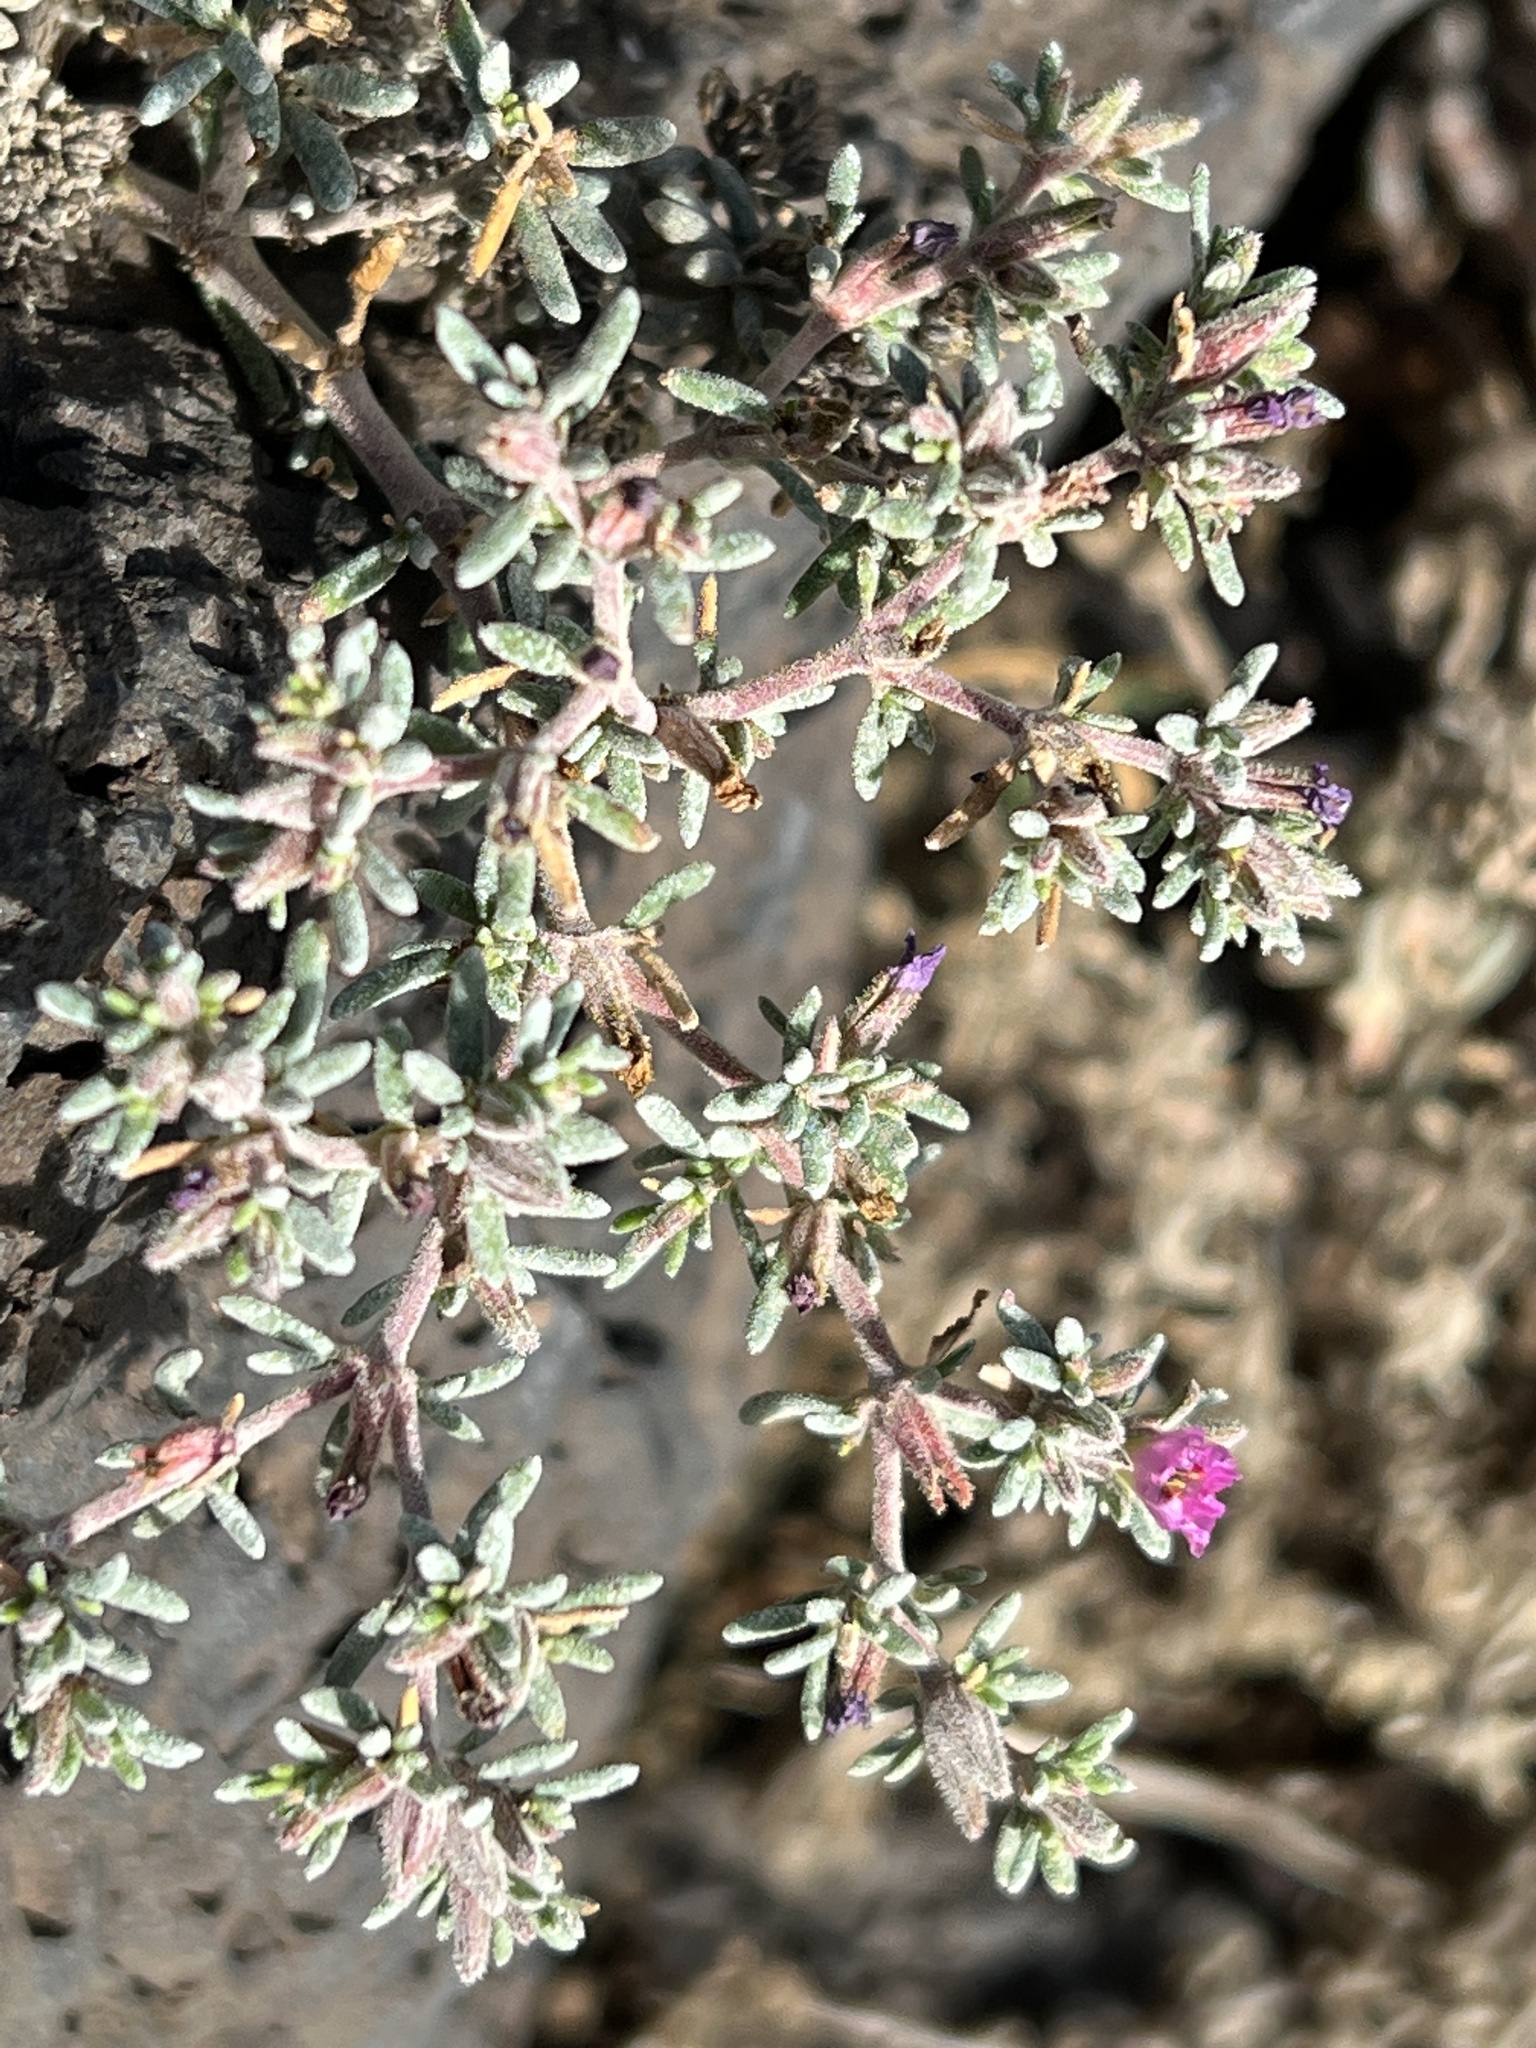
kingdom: Plantae
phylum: Tracheophyta
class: Magnoliopsida
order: Caryophyllales
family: Frankeniaceae
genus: Frankenia
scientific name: Frankenia capitata
